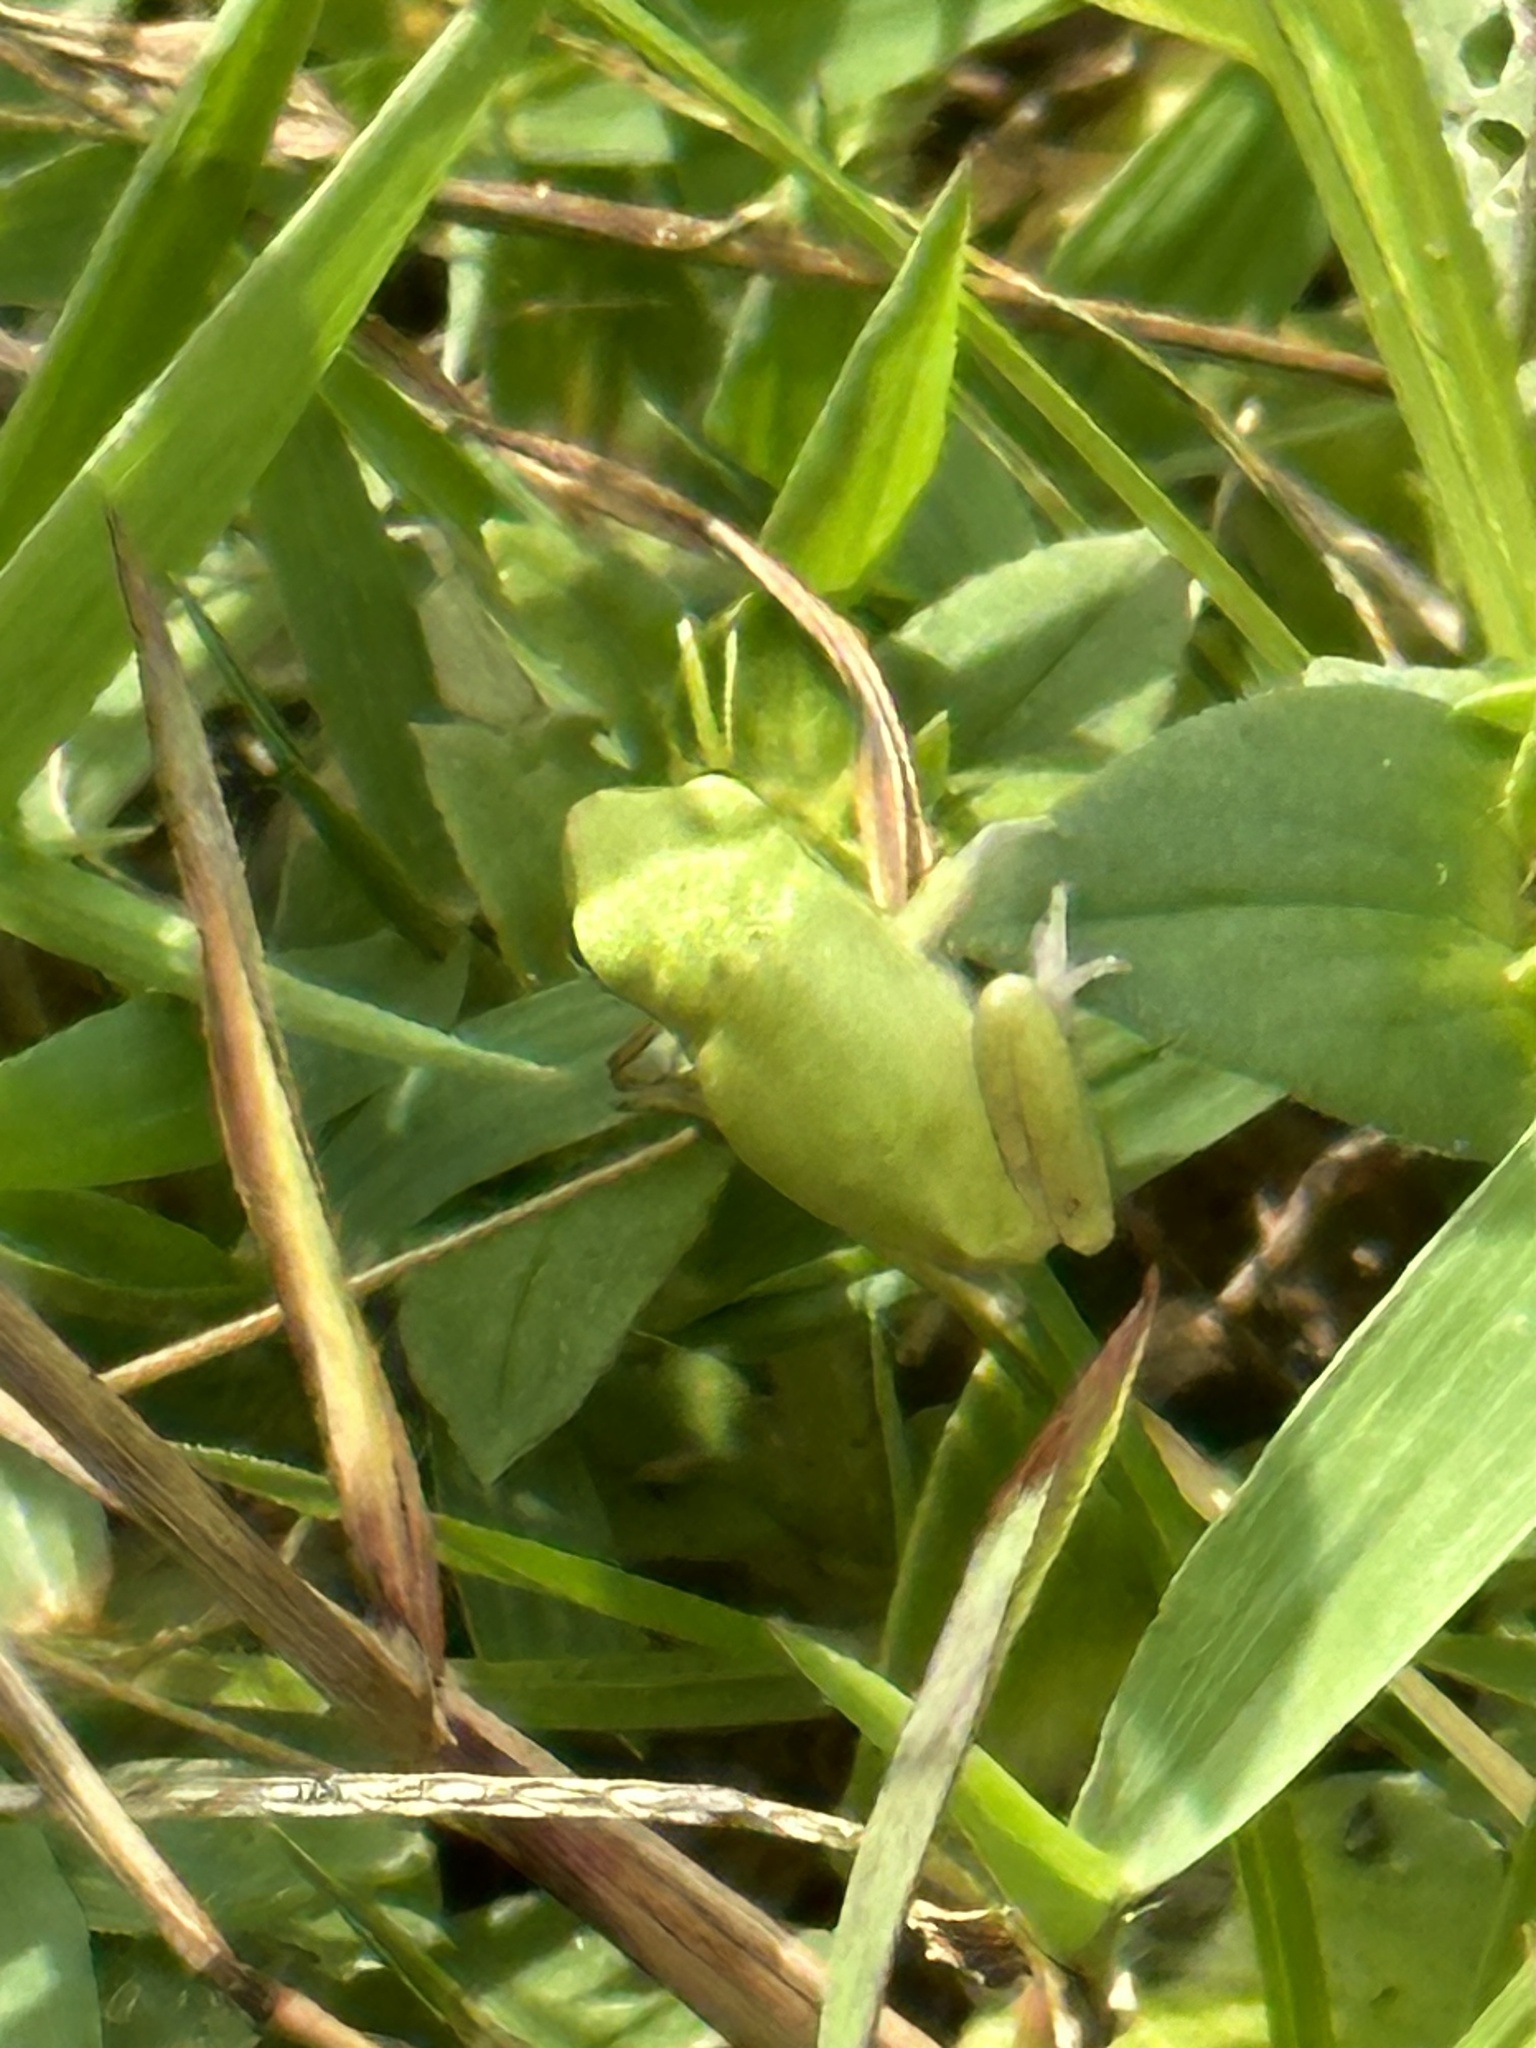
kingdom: Animalia
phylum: Chordata
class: Amphibia
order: Anura
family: Hylidae
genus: Dryophytes
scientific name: Dryophytes squirellus
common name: Squirrel treefrog
